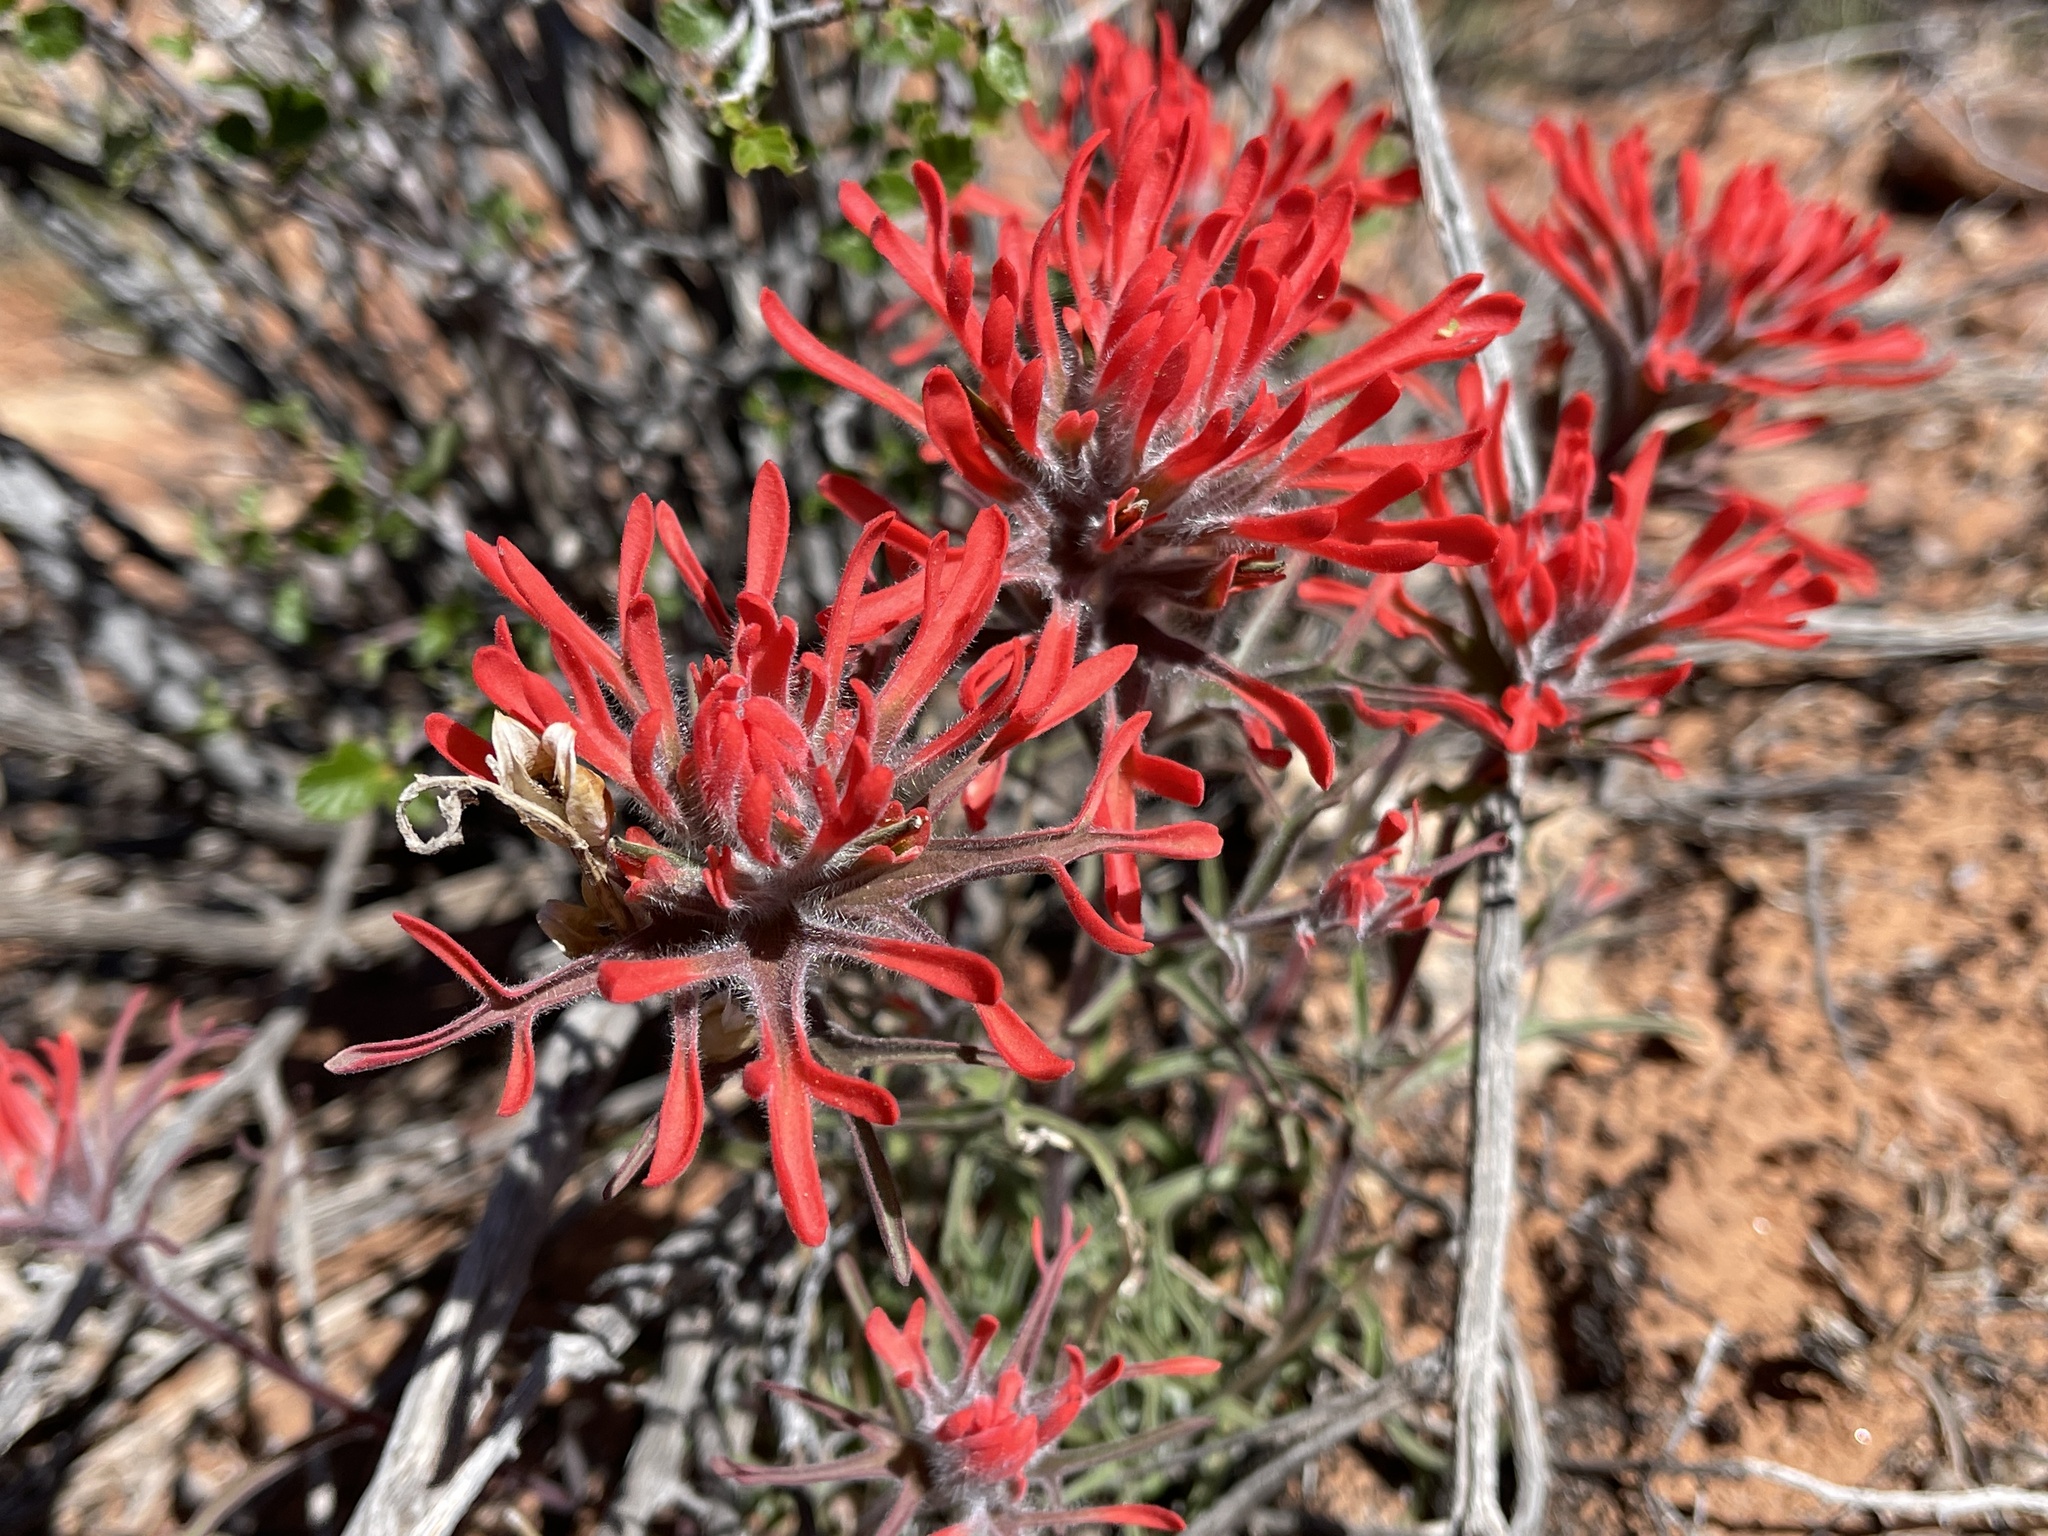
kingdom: Plantae
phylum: Tracheophyta
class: Magnoliopsida
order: Lamiales
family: Orobanchaceae
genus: Castilleja
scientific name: Castilleja chromosa
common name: Desert paintbrush
